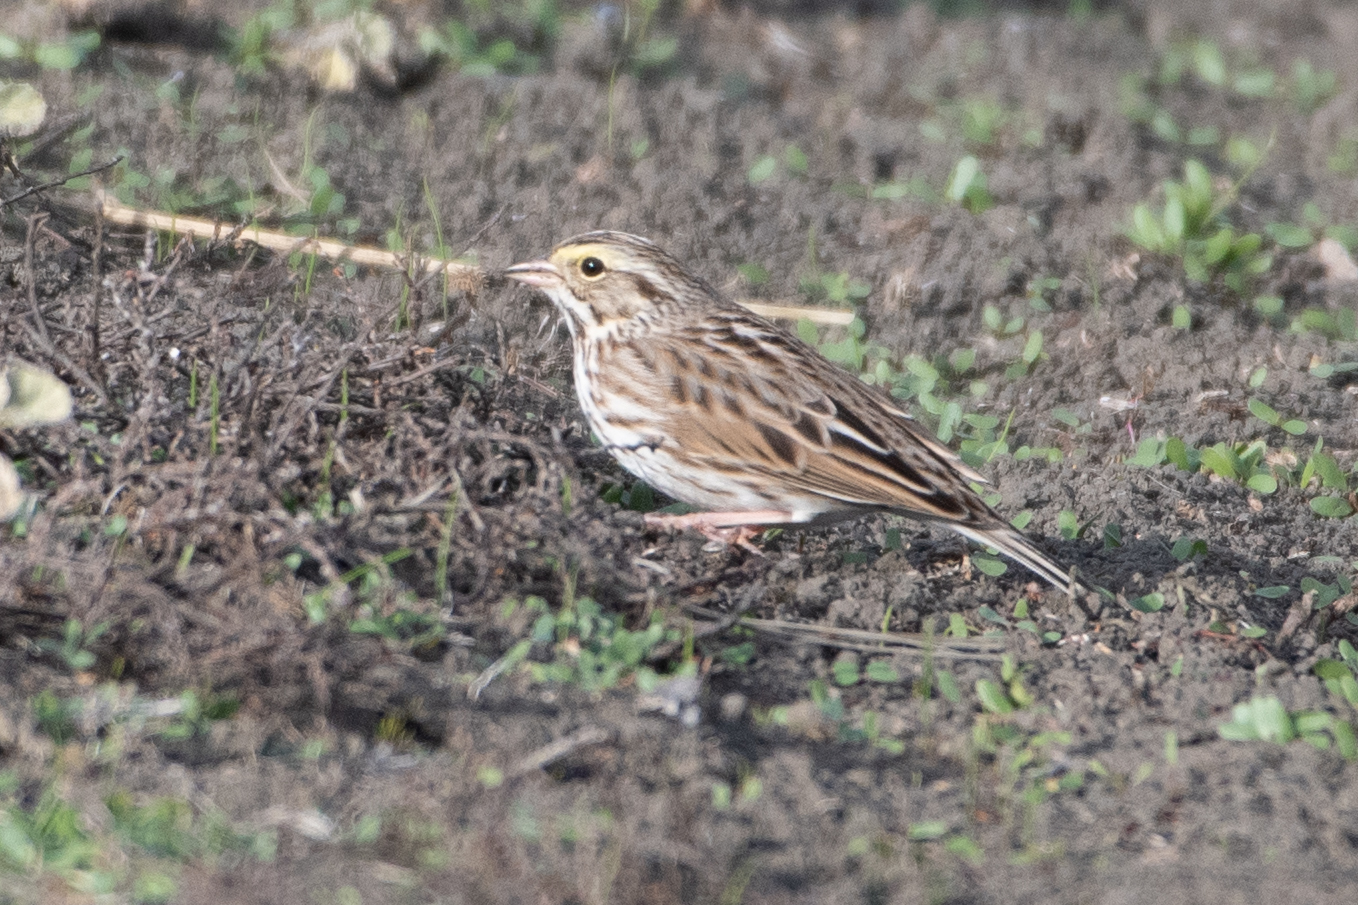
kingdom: Animalia
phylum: Chordata
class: Aves
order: Passeriformes
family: Passerellidae
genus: Passerculus
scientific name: Passerculus sandwichensis
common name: Savannah sparrow
